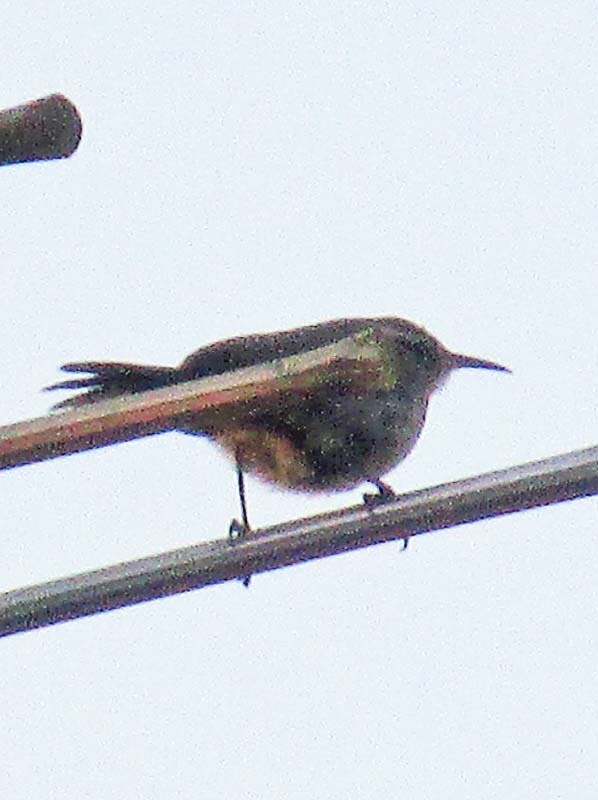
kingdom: Animalia
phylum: Chordata
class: Aves
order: Passeriformes
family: Troglodytidae
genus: Thryomanes
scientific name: Thryomanes bewickii
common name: Bewick's wren
